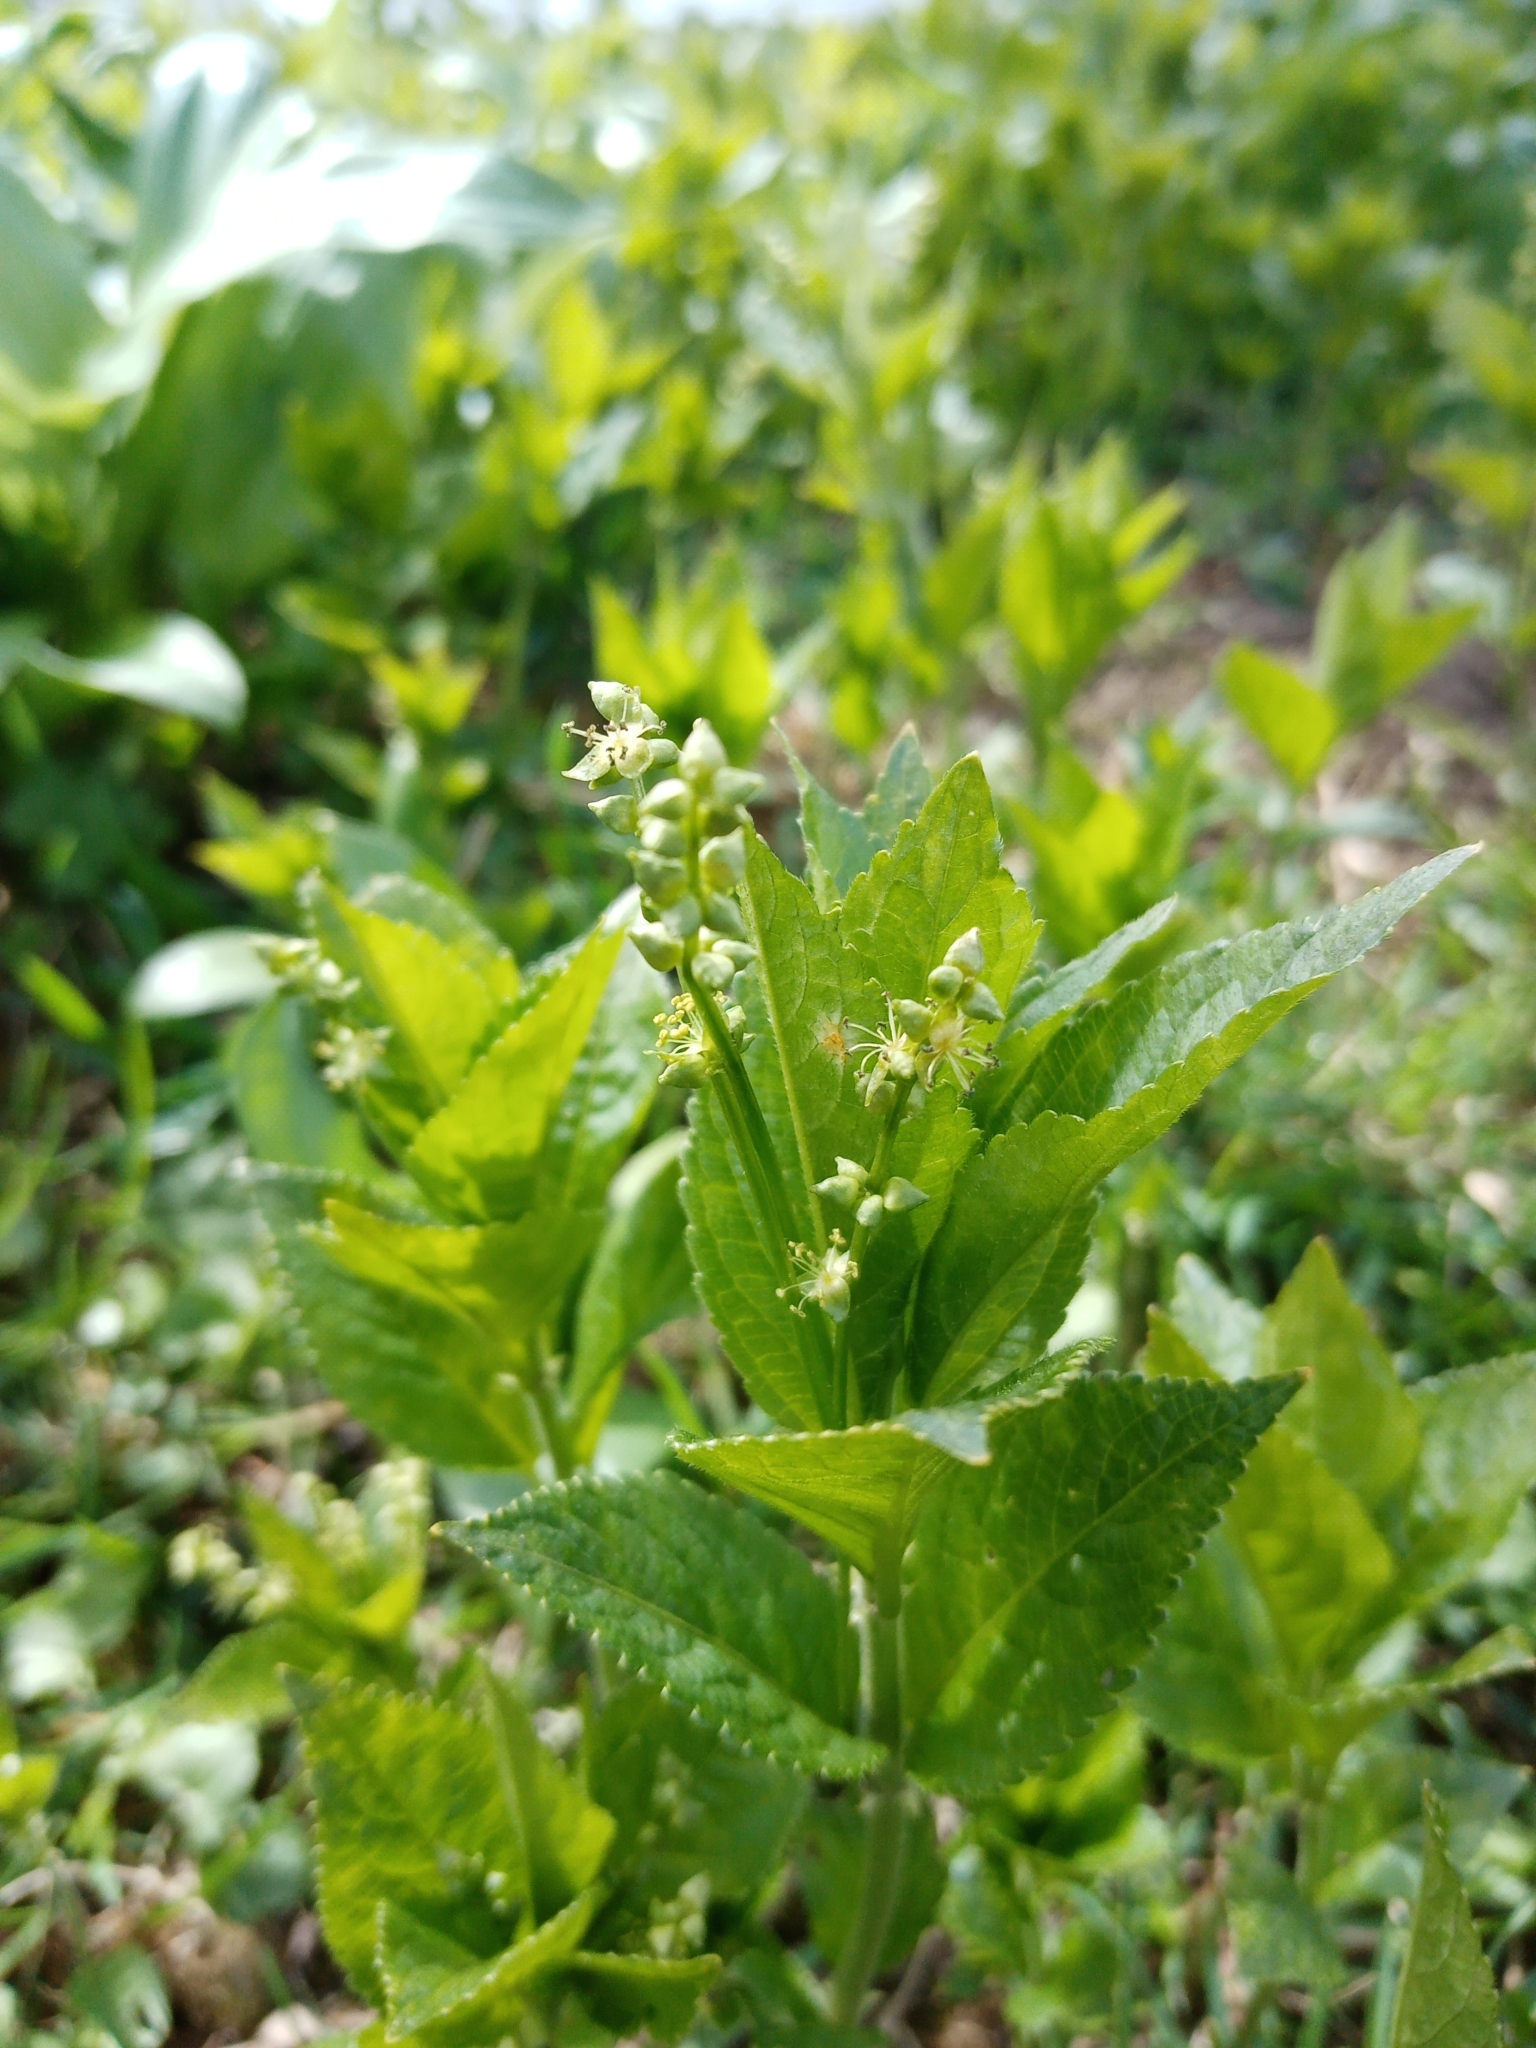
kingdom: Plantae
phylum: Tracheophyta
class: Magnoliopsida
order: Malpighiales
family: Euphorbiaceae
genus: Mercurialis
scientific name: Mercurialis perennis
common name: Dog mercury
